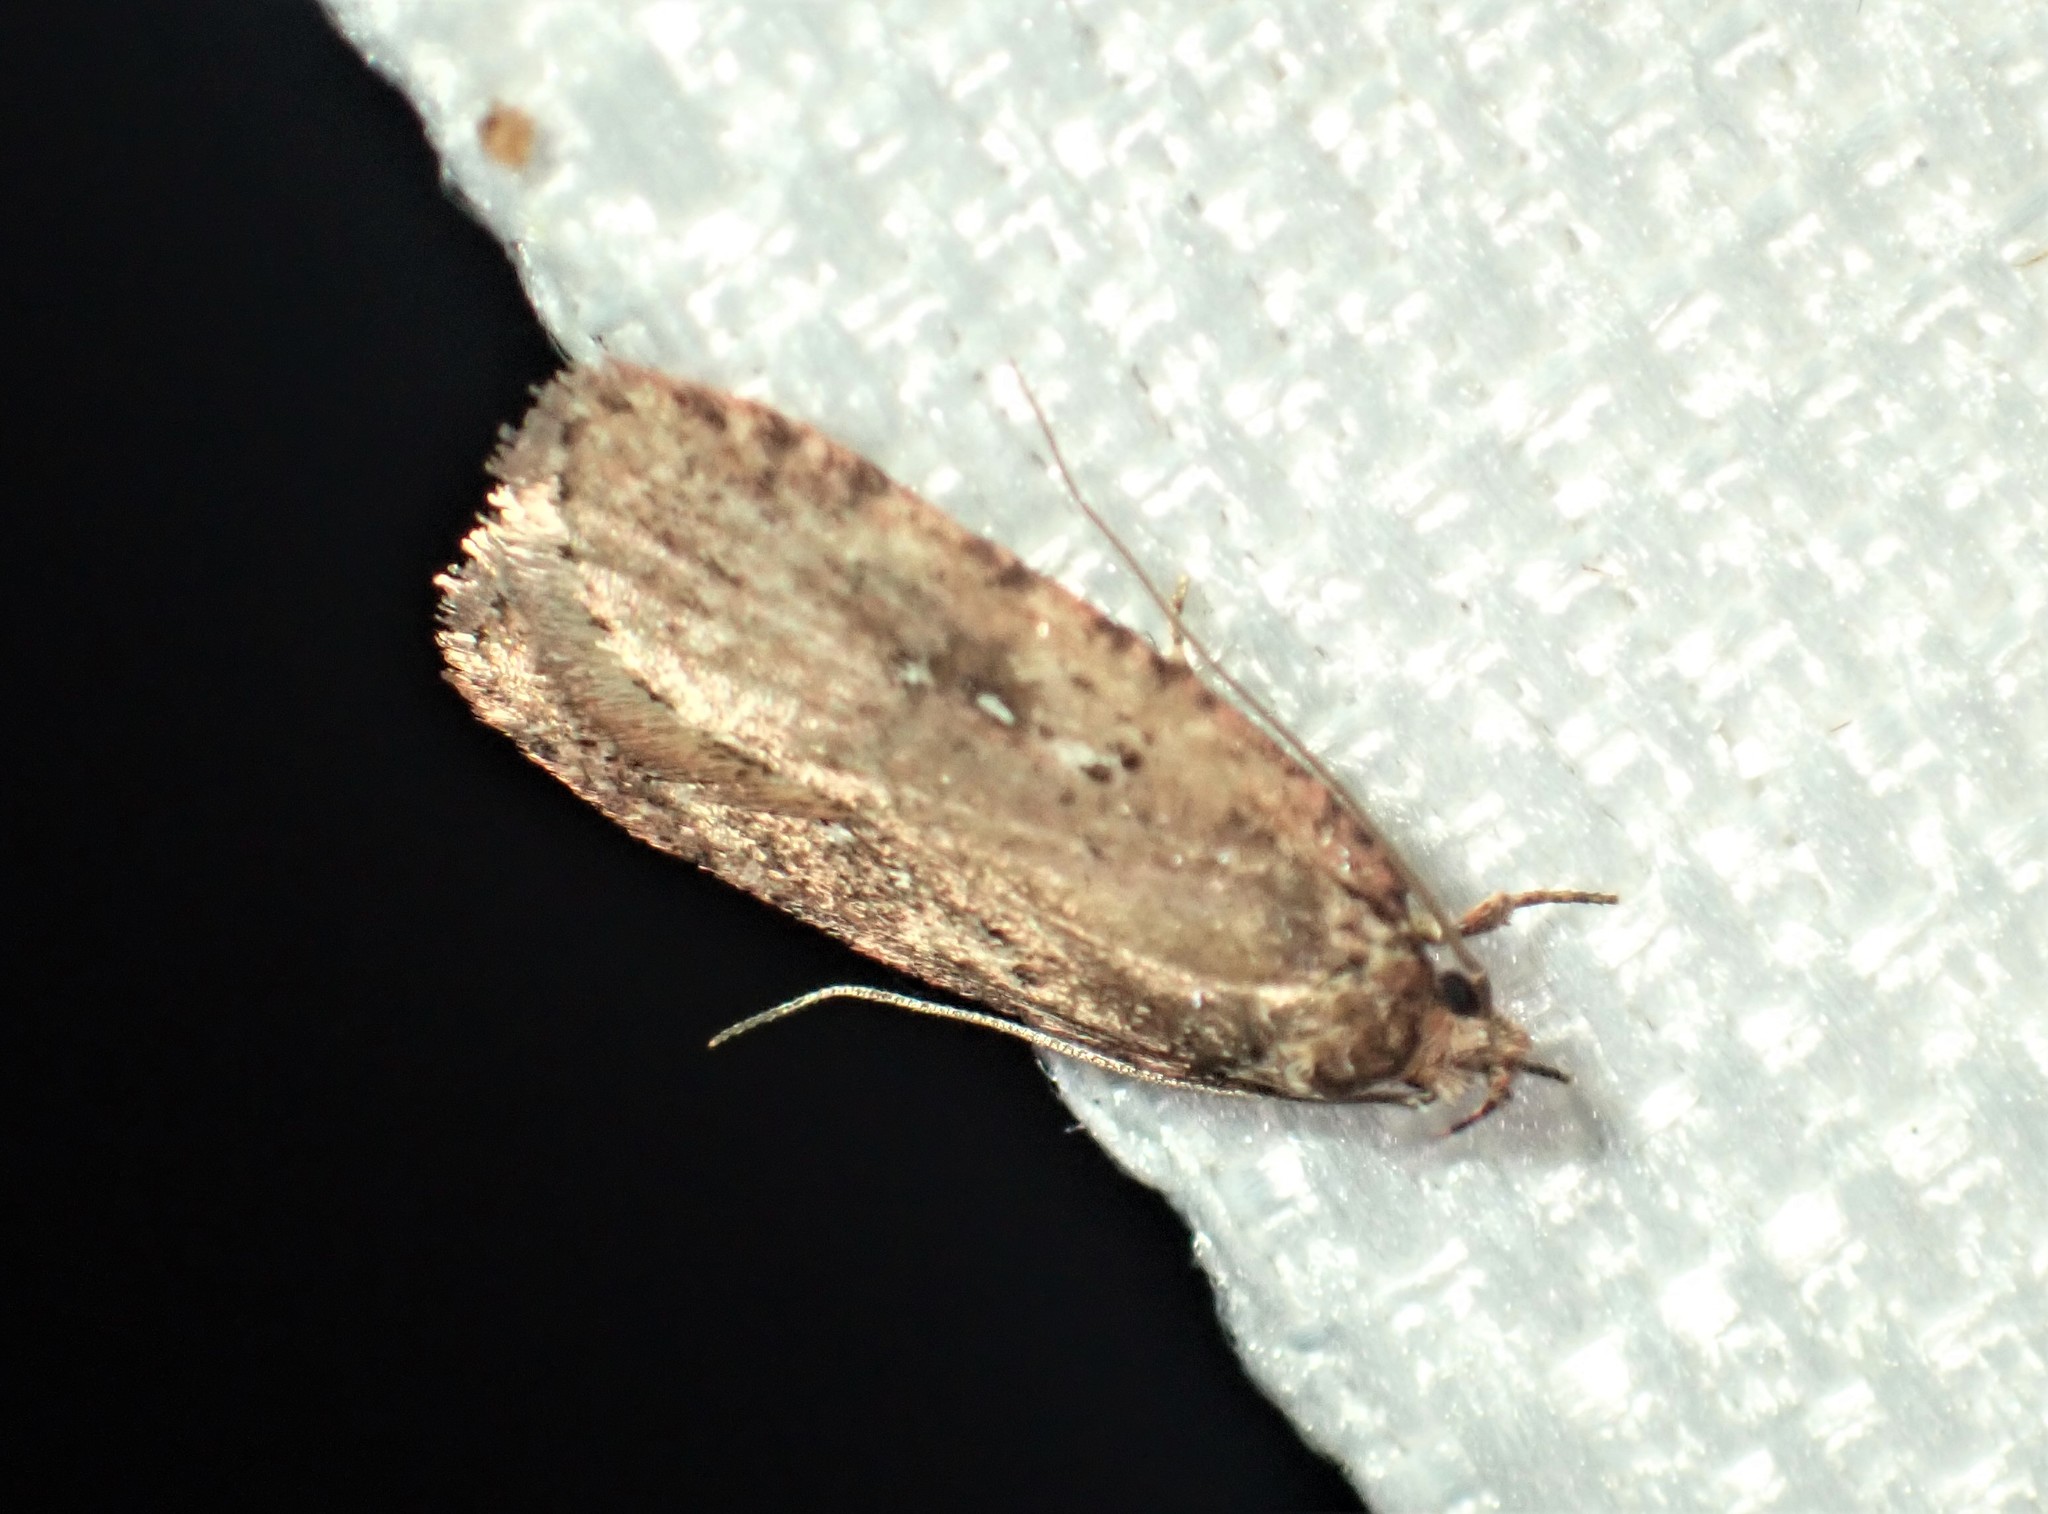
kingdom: Animalia
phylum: Arthropoda
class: Insecta
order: Lepidoptera
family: Depressariidae
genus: Agonopterix
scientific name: Agonopterix pulvipennella
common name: Goldenrod leafffolder
